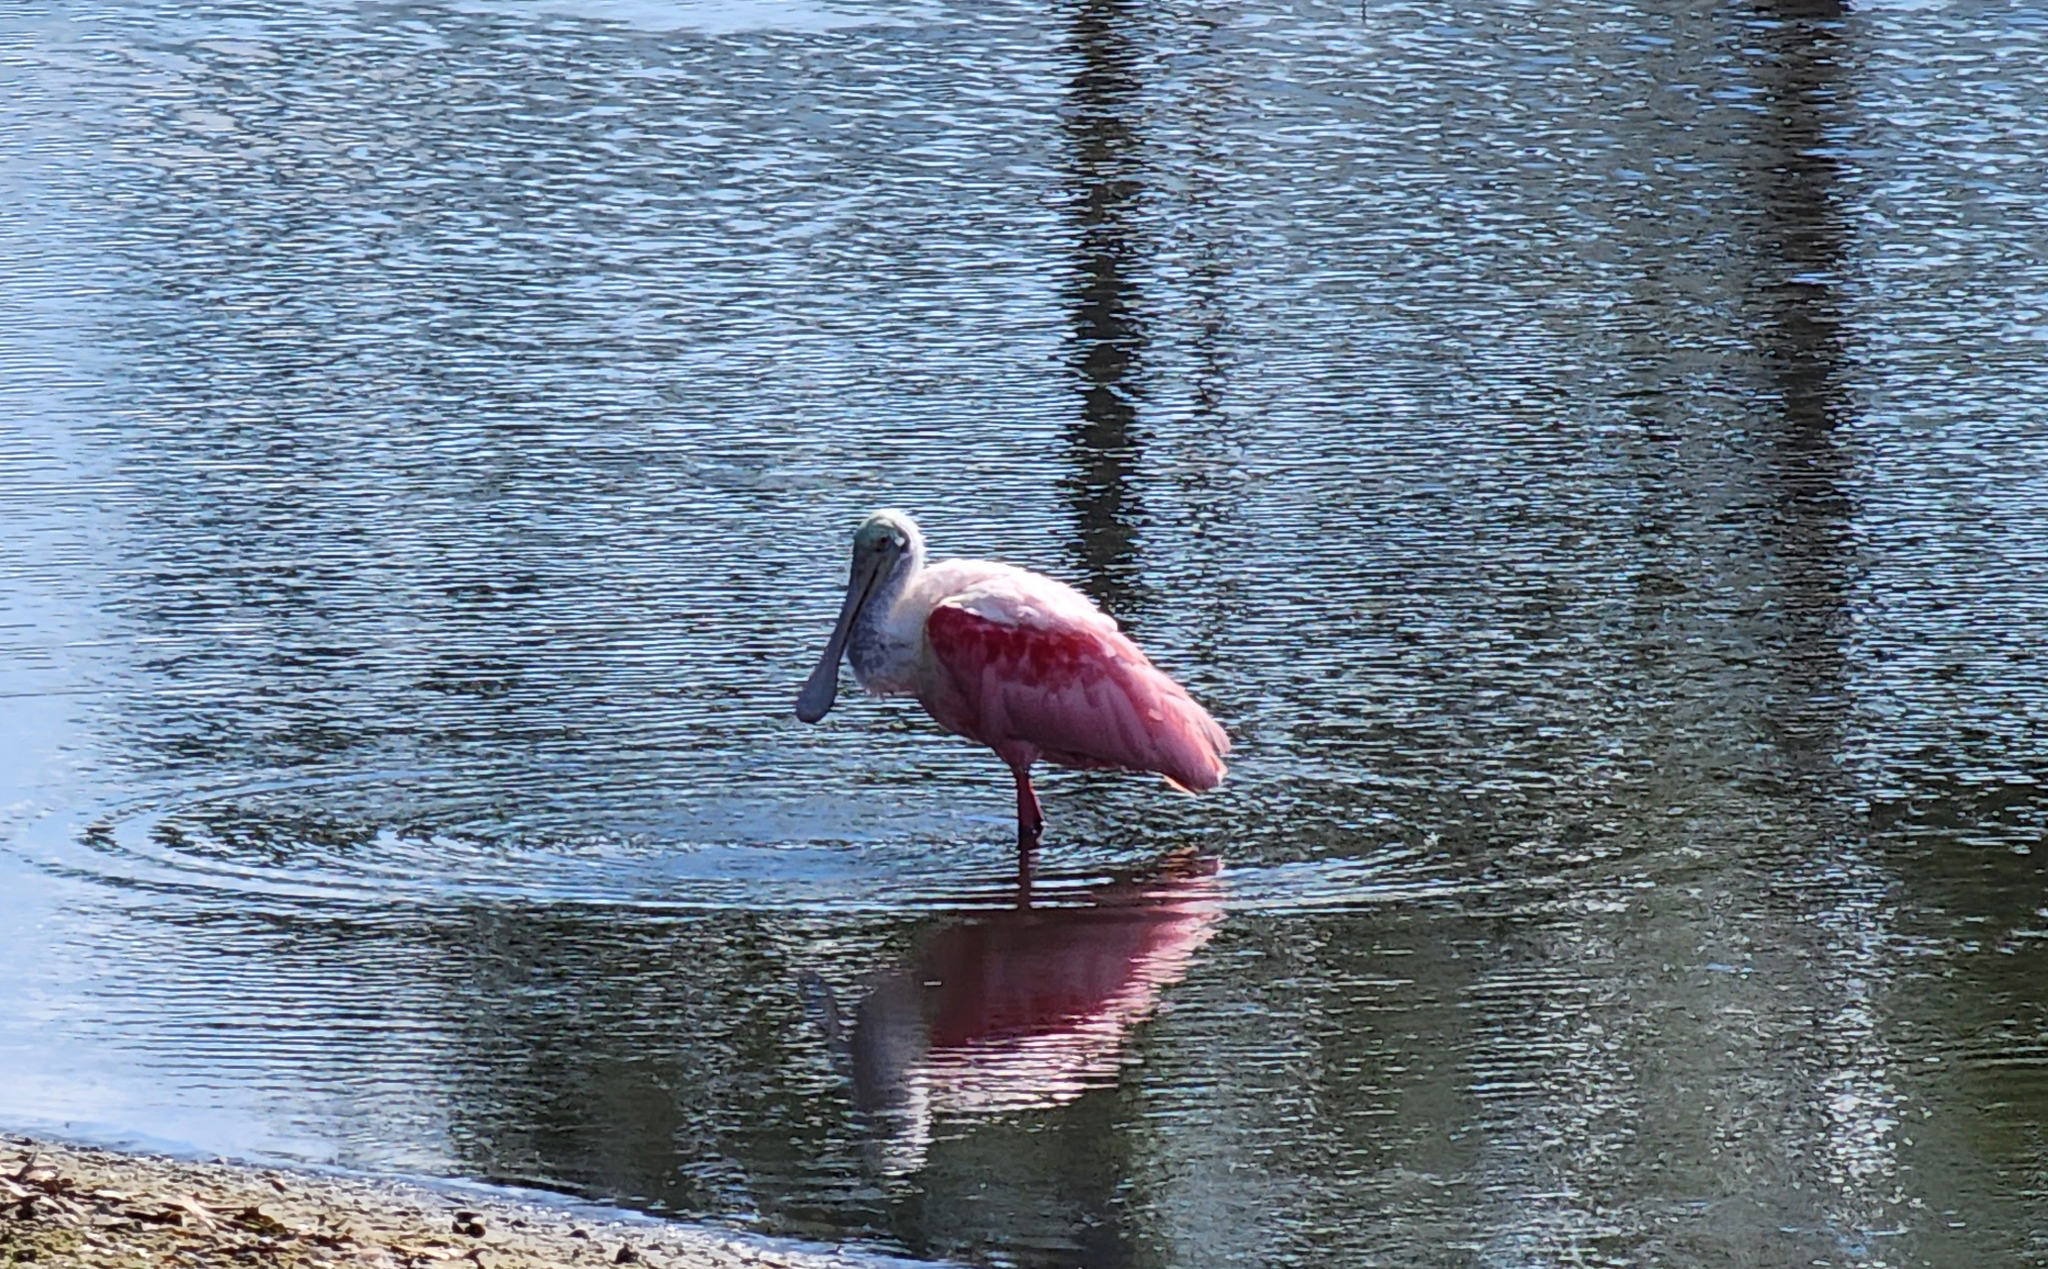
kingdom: Animalia
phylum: Chordata
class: Aves
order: Pelecaniformes
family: Threskiornithidae
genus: Platalea
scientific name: Platalea ajaja
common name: Roseate spoonbill
